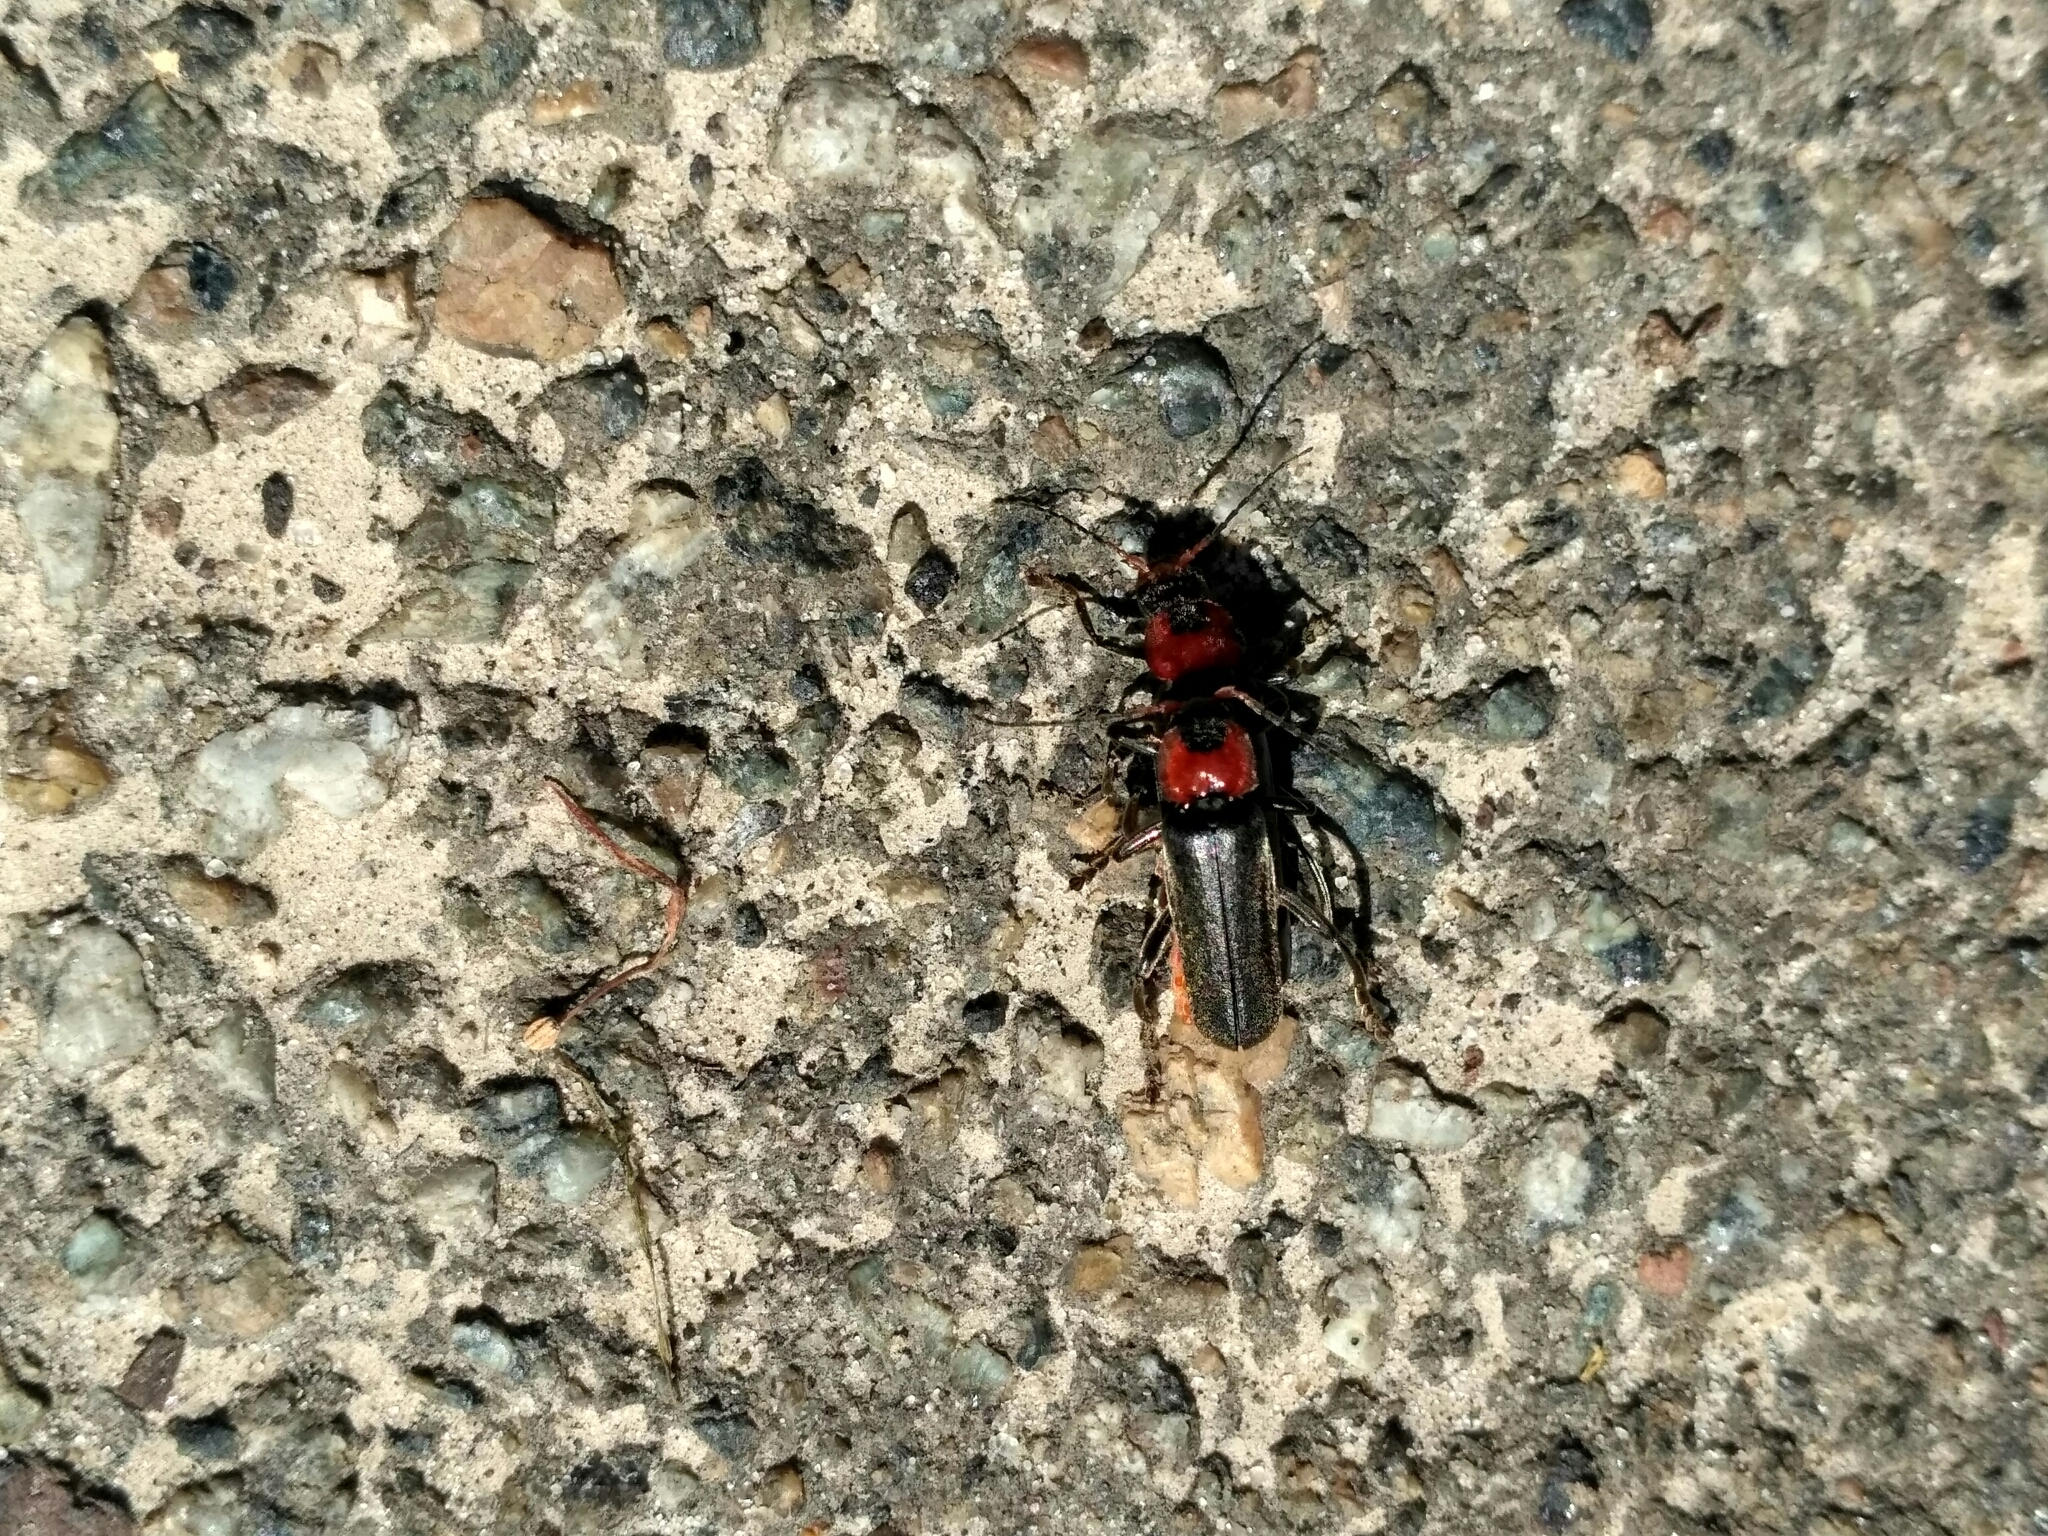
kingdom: Animalia
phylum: Arthropoda
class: Insecta
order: Coleoptera
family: Cantharidae
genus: Cantharis
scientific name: Cantharis fusca
